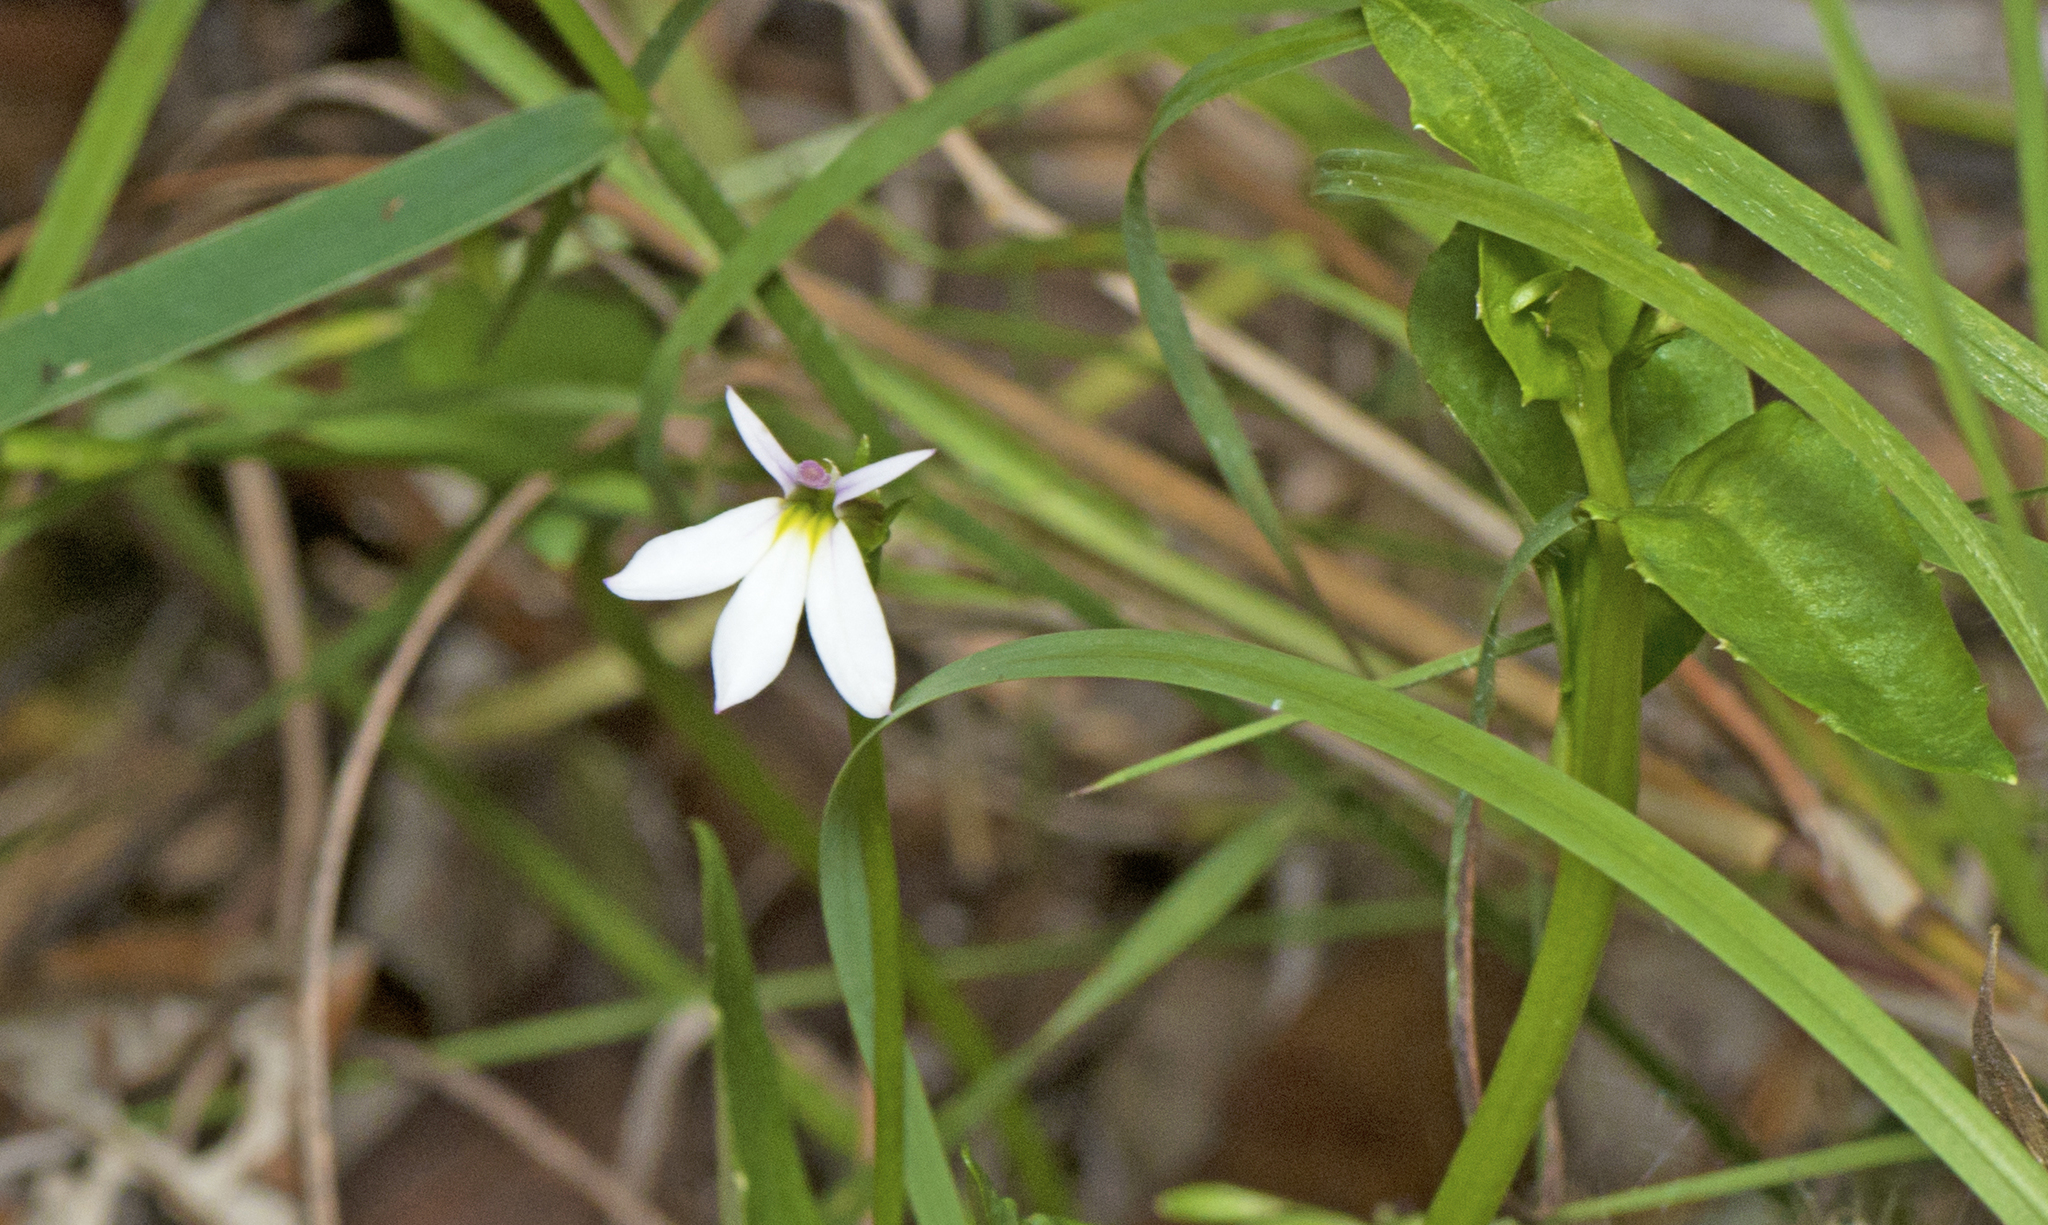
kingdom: Plantae
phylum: Tracheophyta
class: Magnoliopsida
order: Asterales
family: Campanulaceae
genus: Lobelia
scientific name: Lobelia purpurascens
